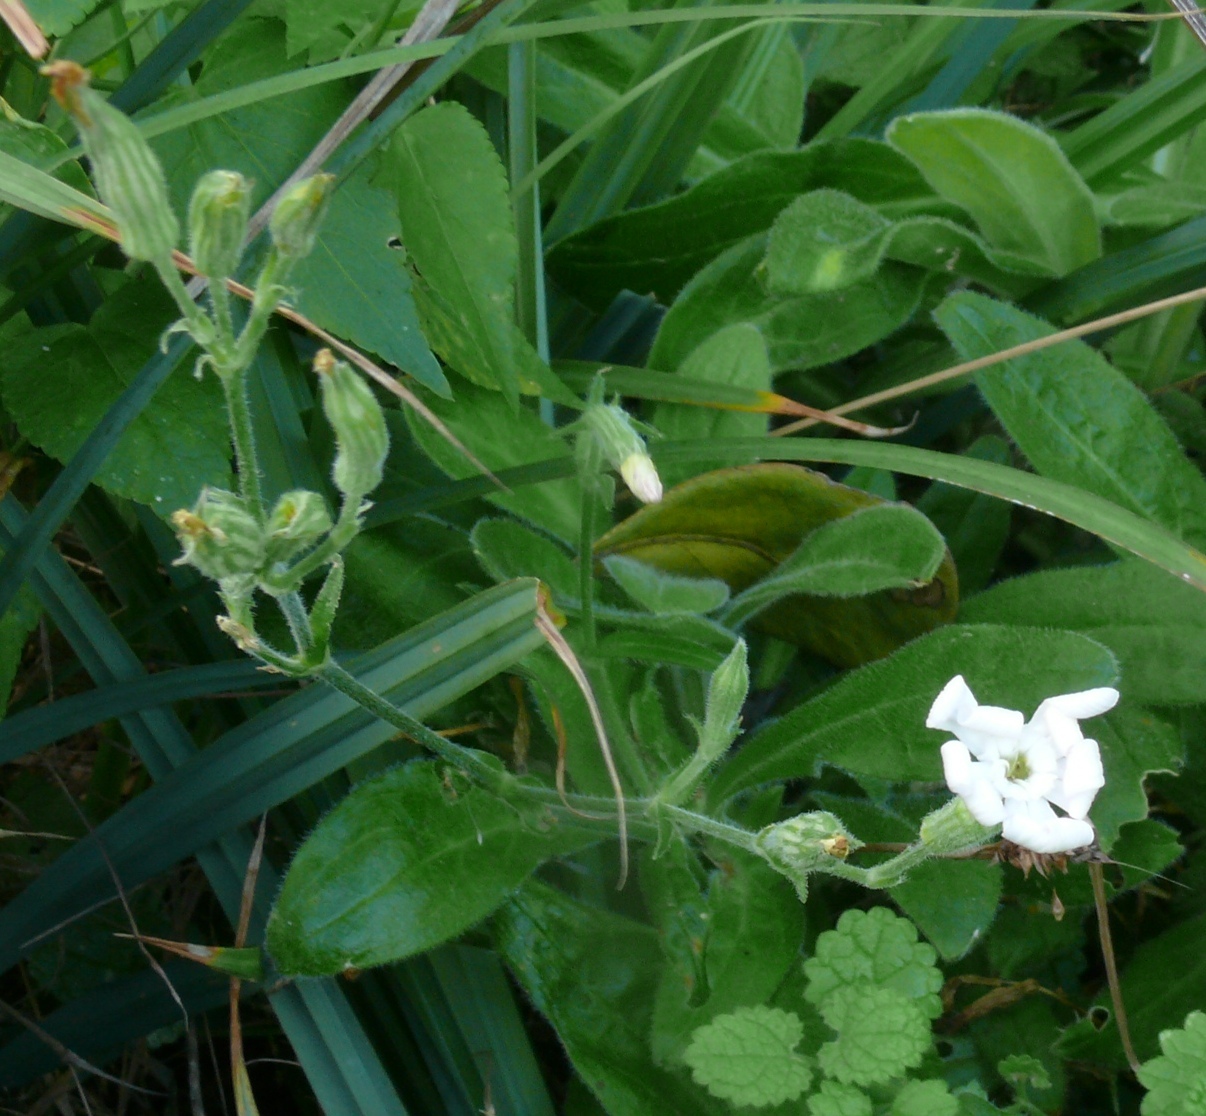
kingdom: Plantae
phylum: Tracheophyta
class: Magnoliopsida
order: Caryophyllales
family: Caryophyllaceae
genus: Silene
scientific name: Silene undulata
